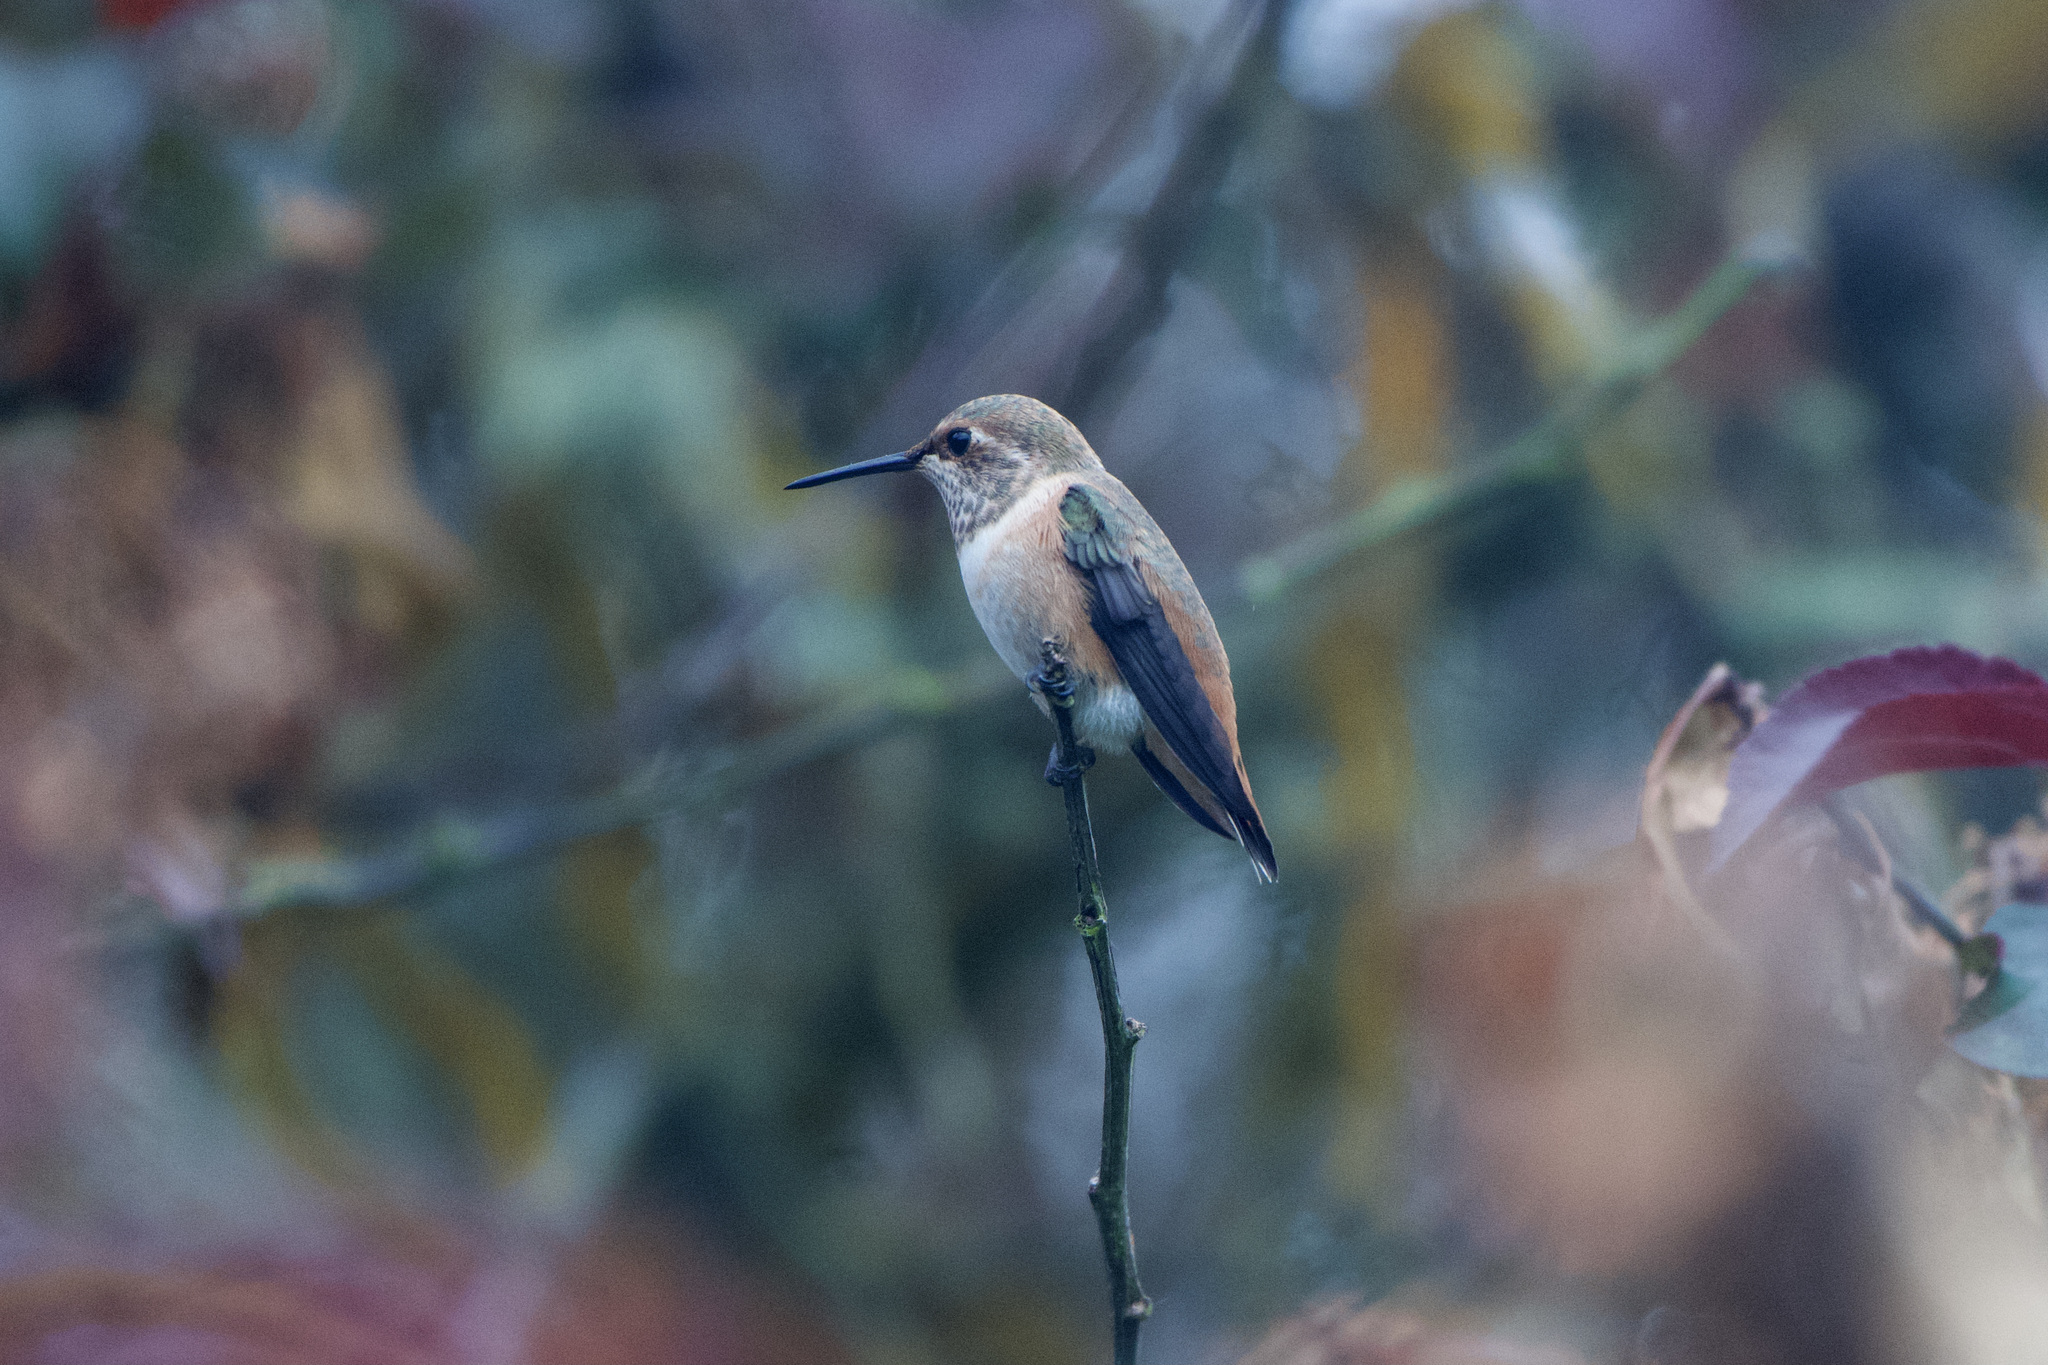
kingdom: Animalia
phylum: Chordata
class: Aves
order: Apodiformes
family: Trochilidae
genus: Selasphorus
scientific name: Selasphorus
